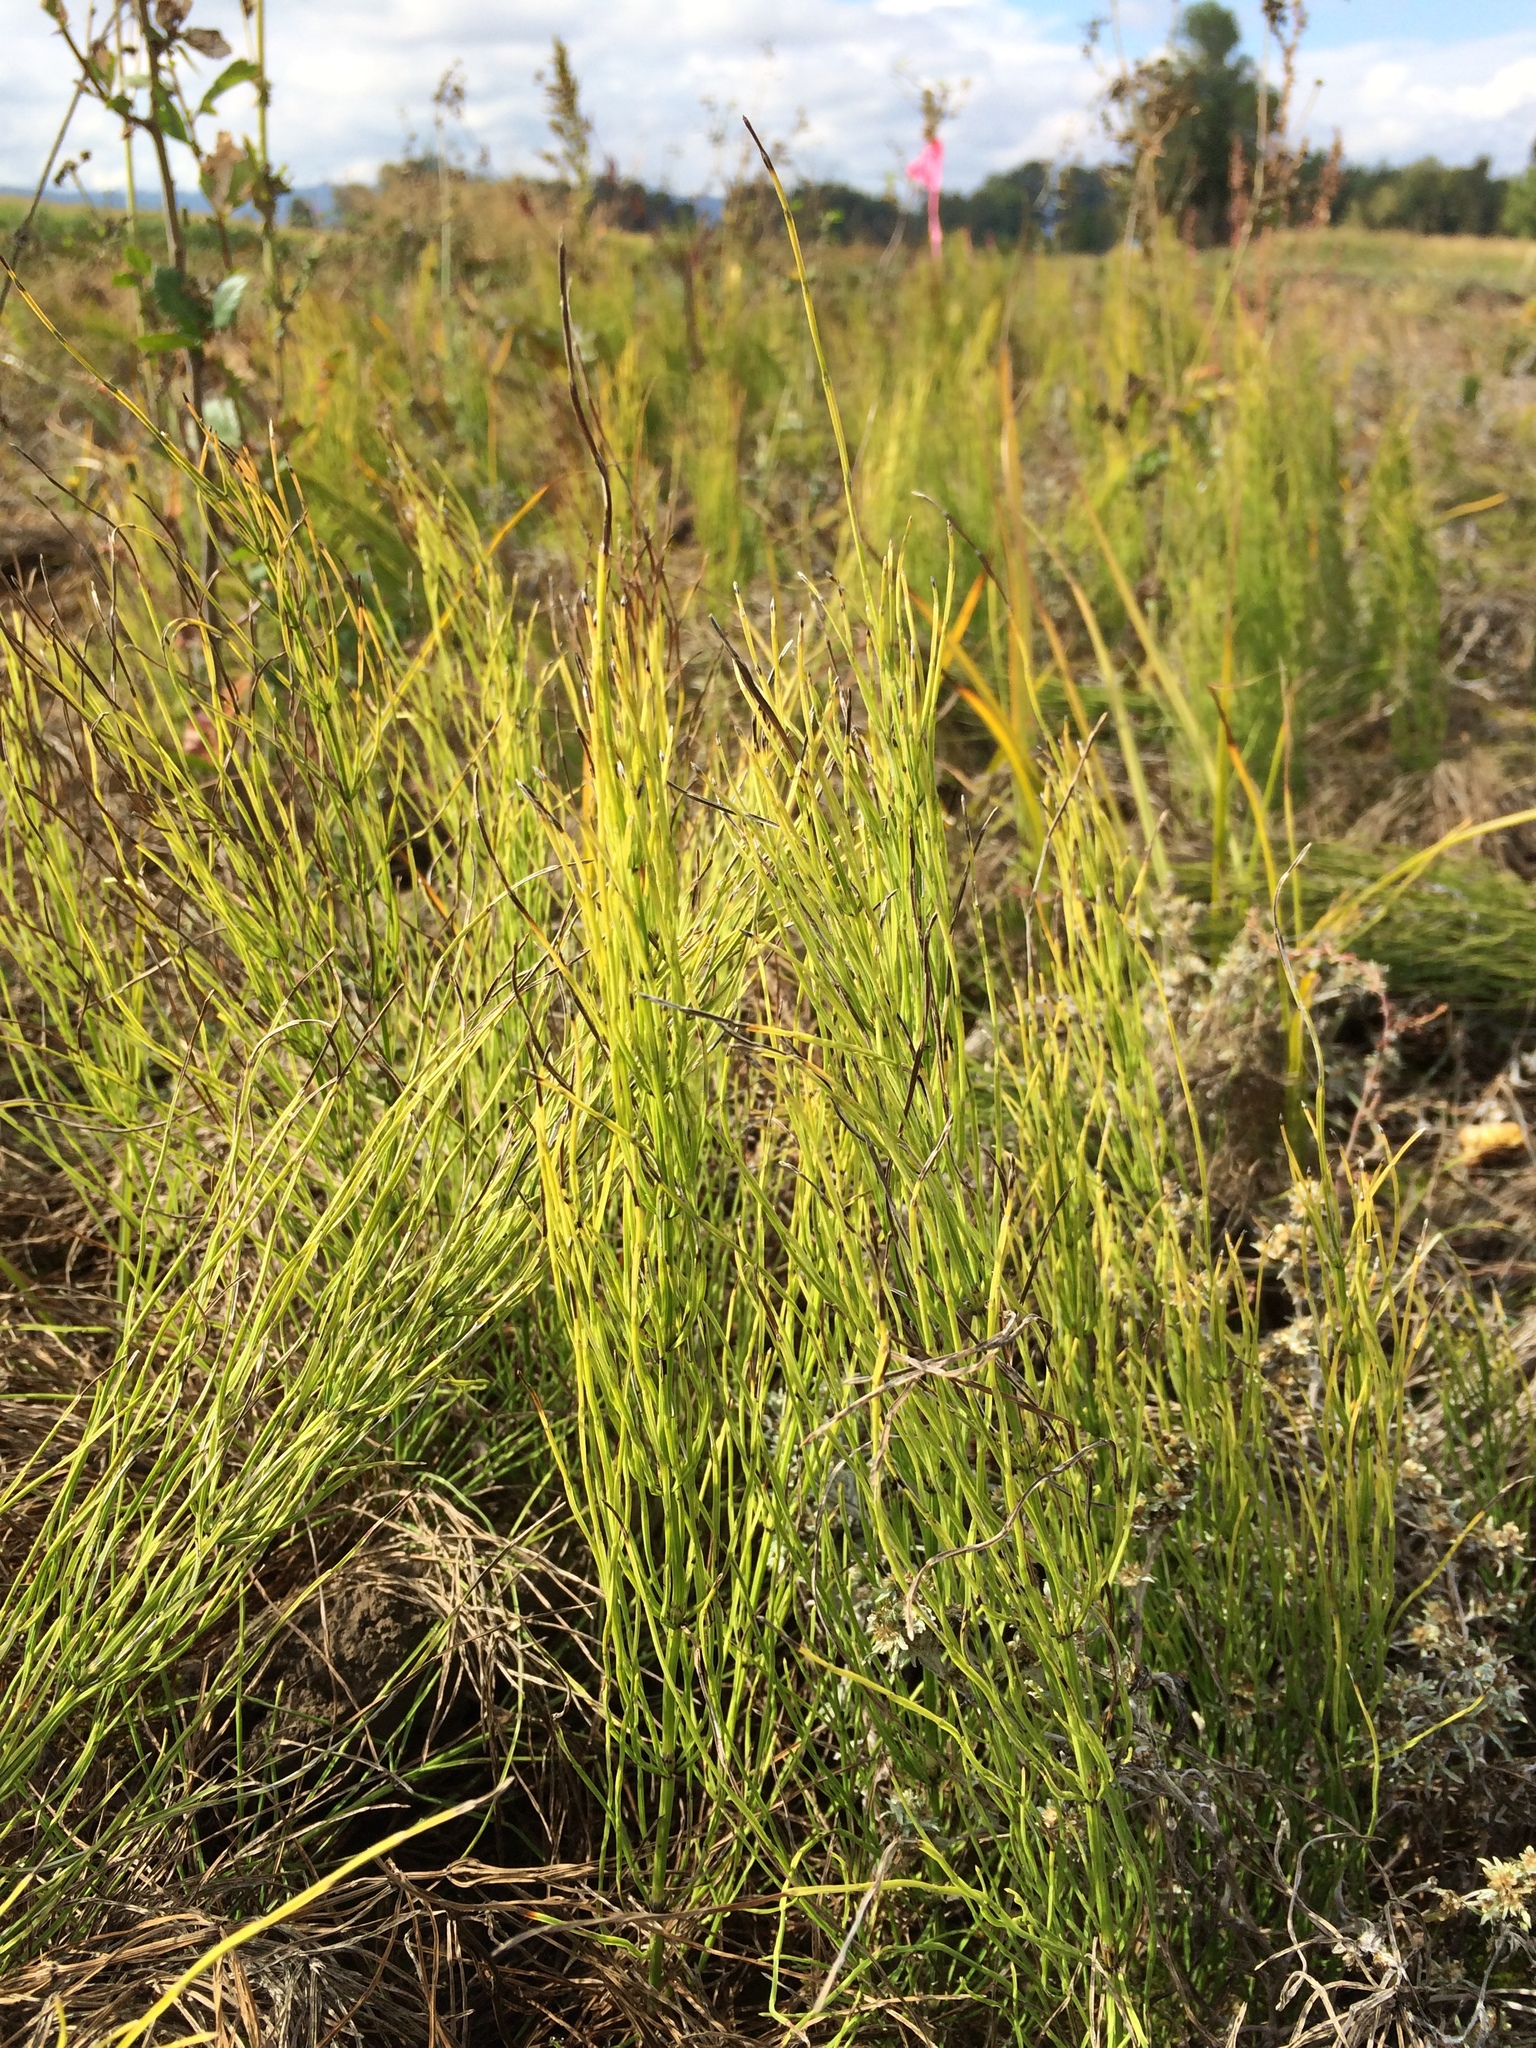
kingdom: Plantae
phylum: Tracheophyta
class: Polypodiopsida
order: Equisetales
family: Equisetaceae
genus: Equisetum
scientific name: Equisetum arvense
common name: Field horsetail
